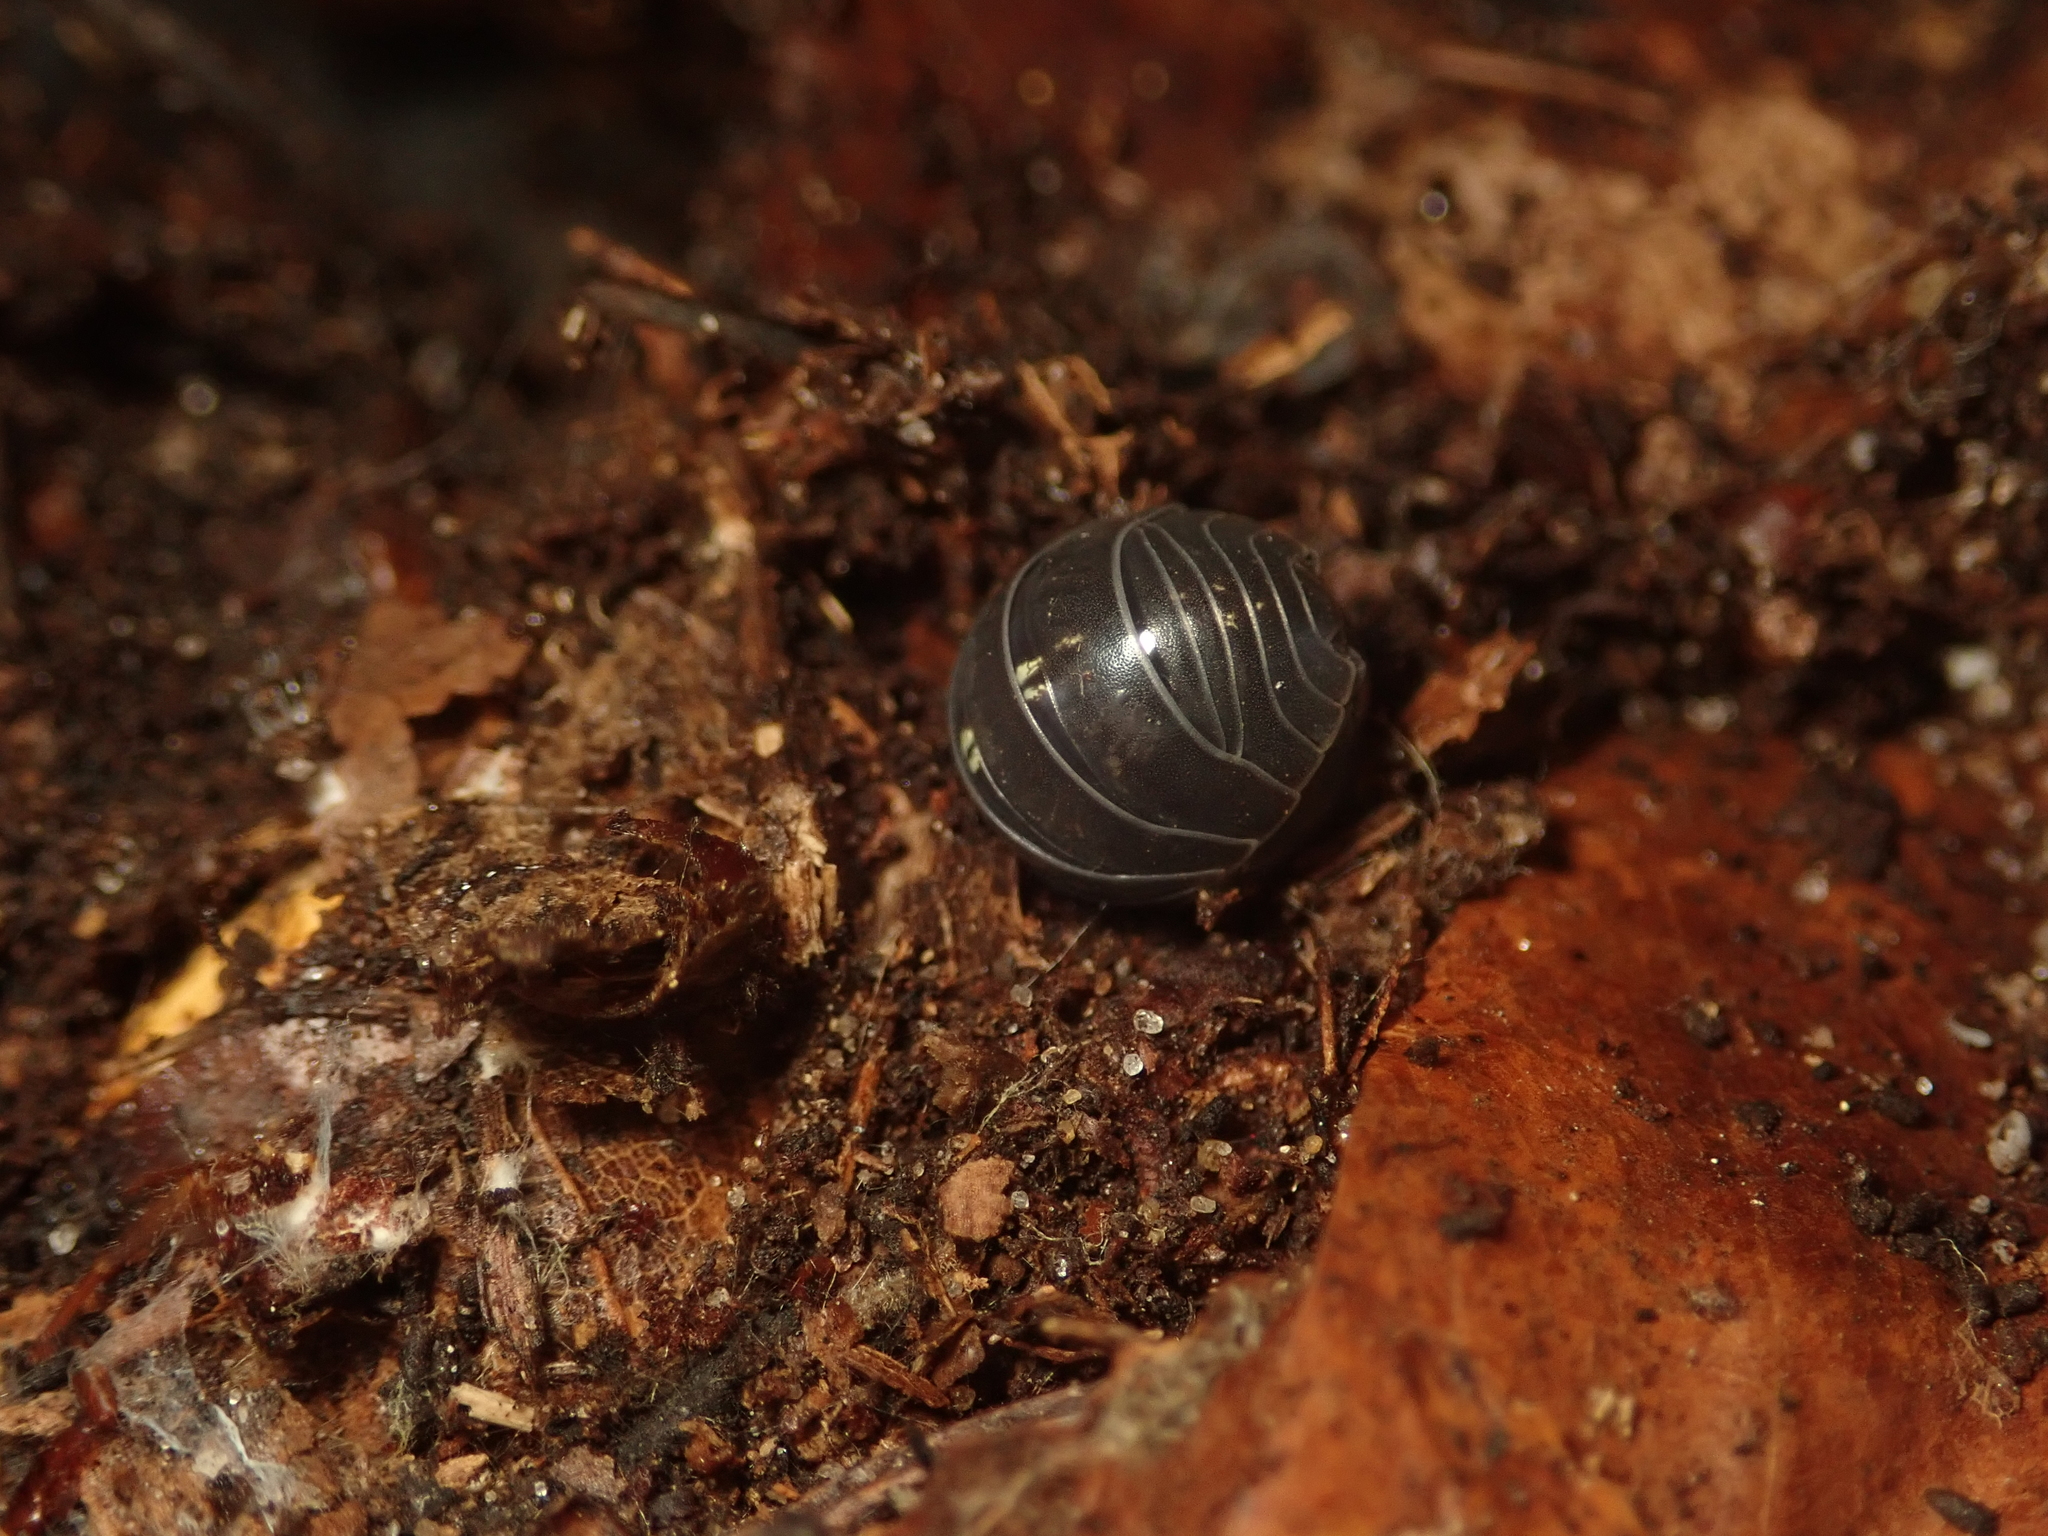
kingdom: Animalia
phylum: Arthropoda
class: Malacostraca
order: Isopoda
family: Armadillidiidae
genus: Armadillidium
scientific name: Armadillidium vulgare
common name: Common pill woodlouse
